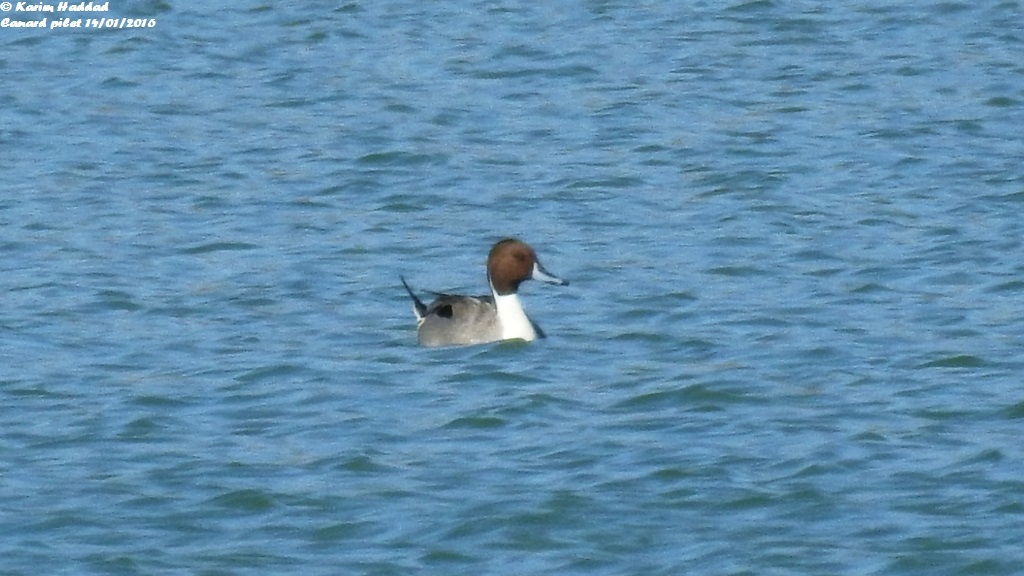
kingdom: Animalia
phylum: Chordata
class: Aves
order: Anseriformes
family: Anatidae
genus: Anas
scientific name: Anas acuta
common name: Northern pintail
